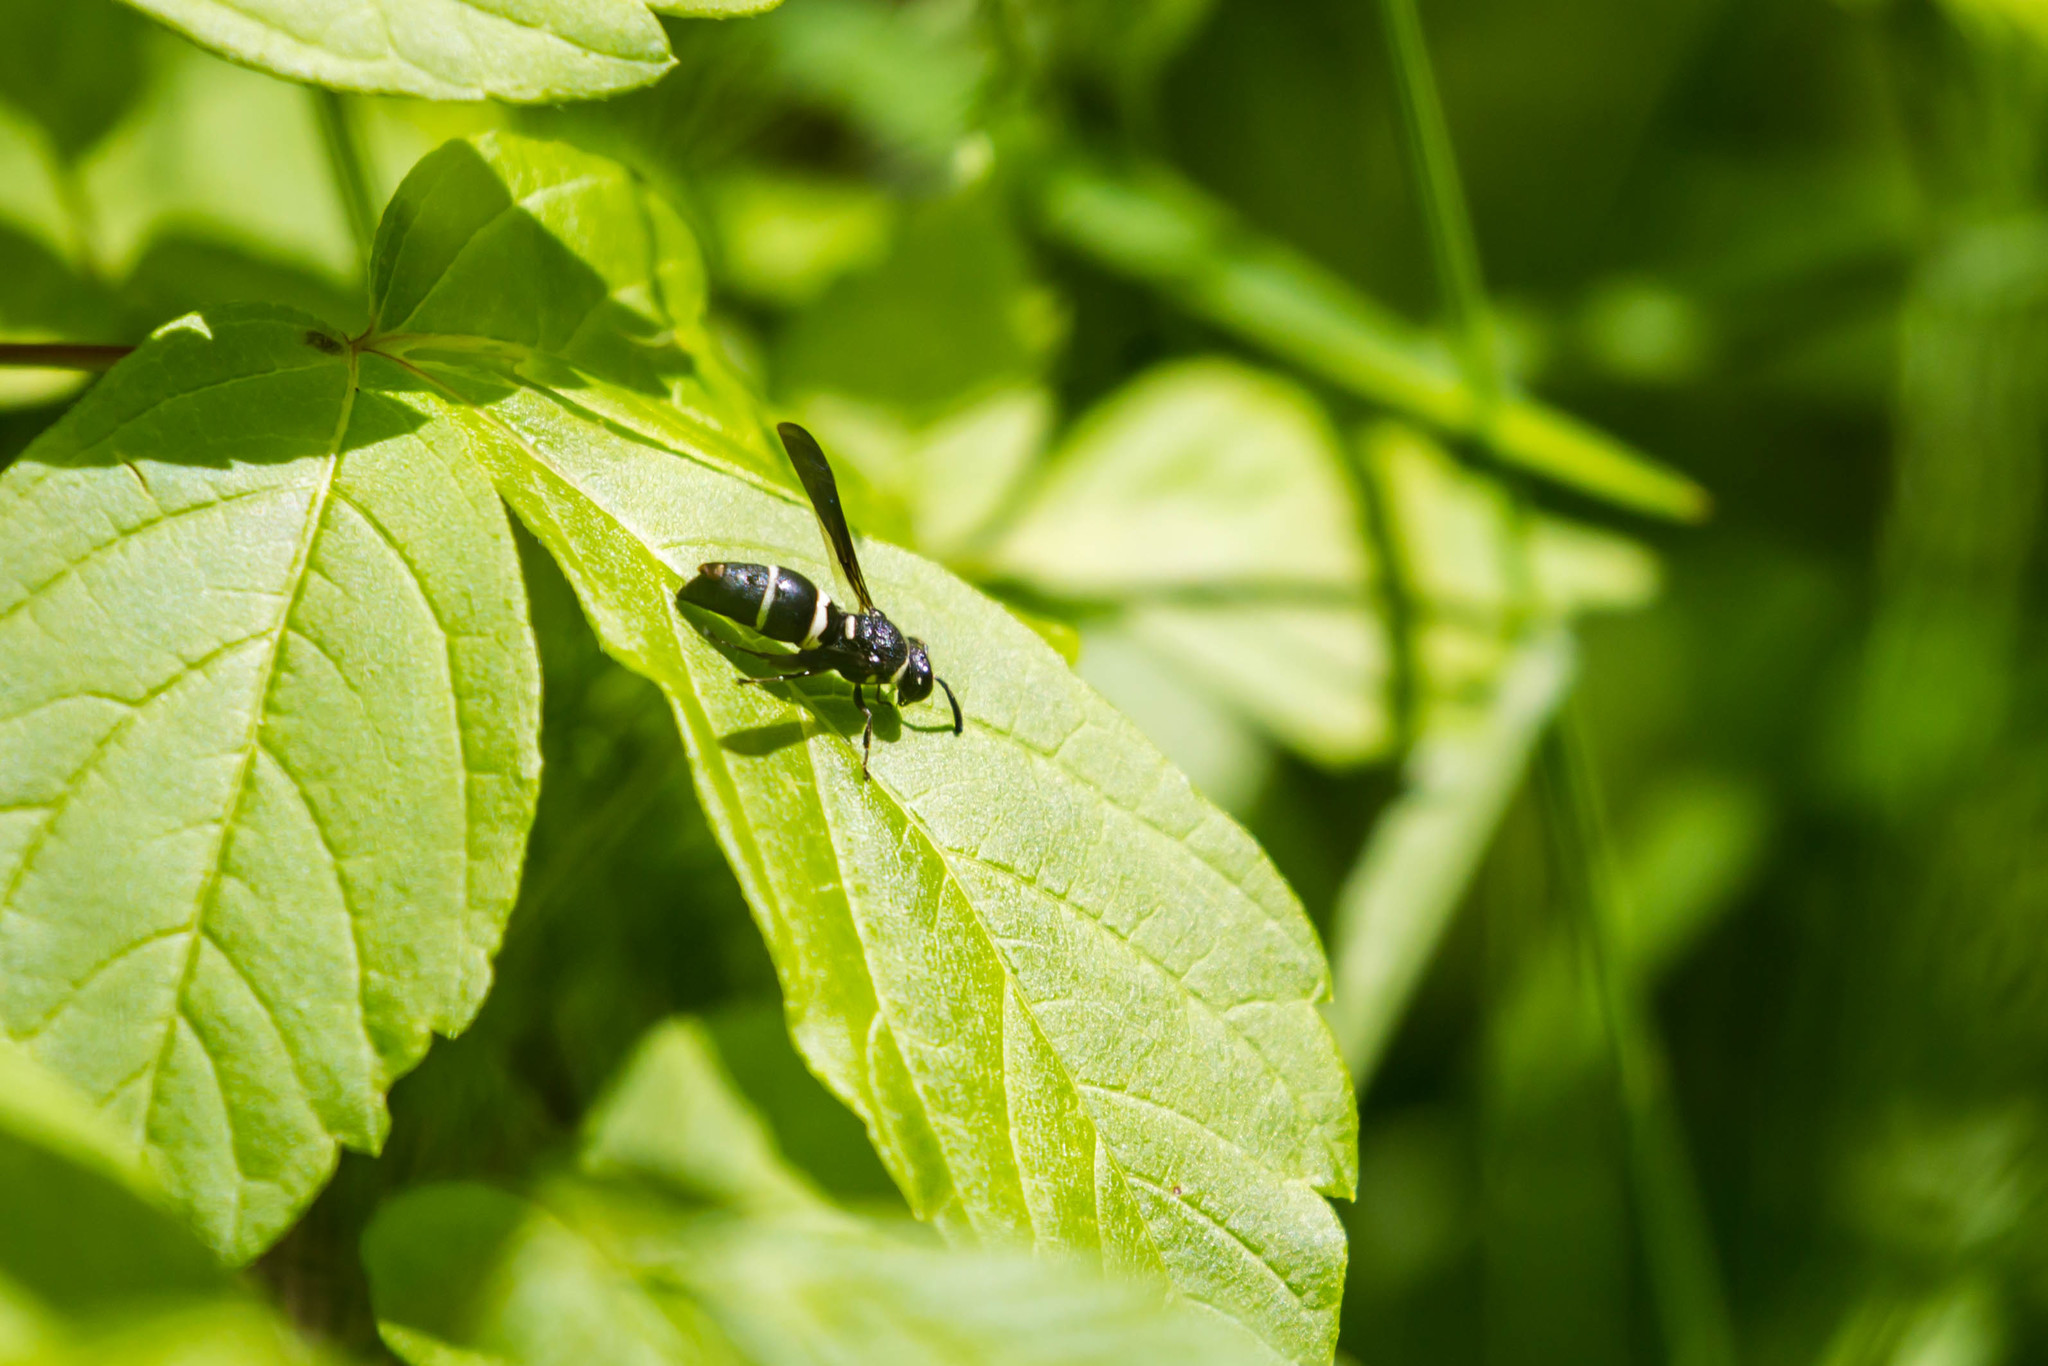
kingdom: Animalia
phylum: Arthropoda
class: Insecta
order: Hymenoptera
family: Eumenidae
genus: Euodynerus
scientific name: Euodynerus megaera
